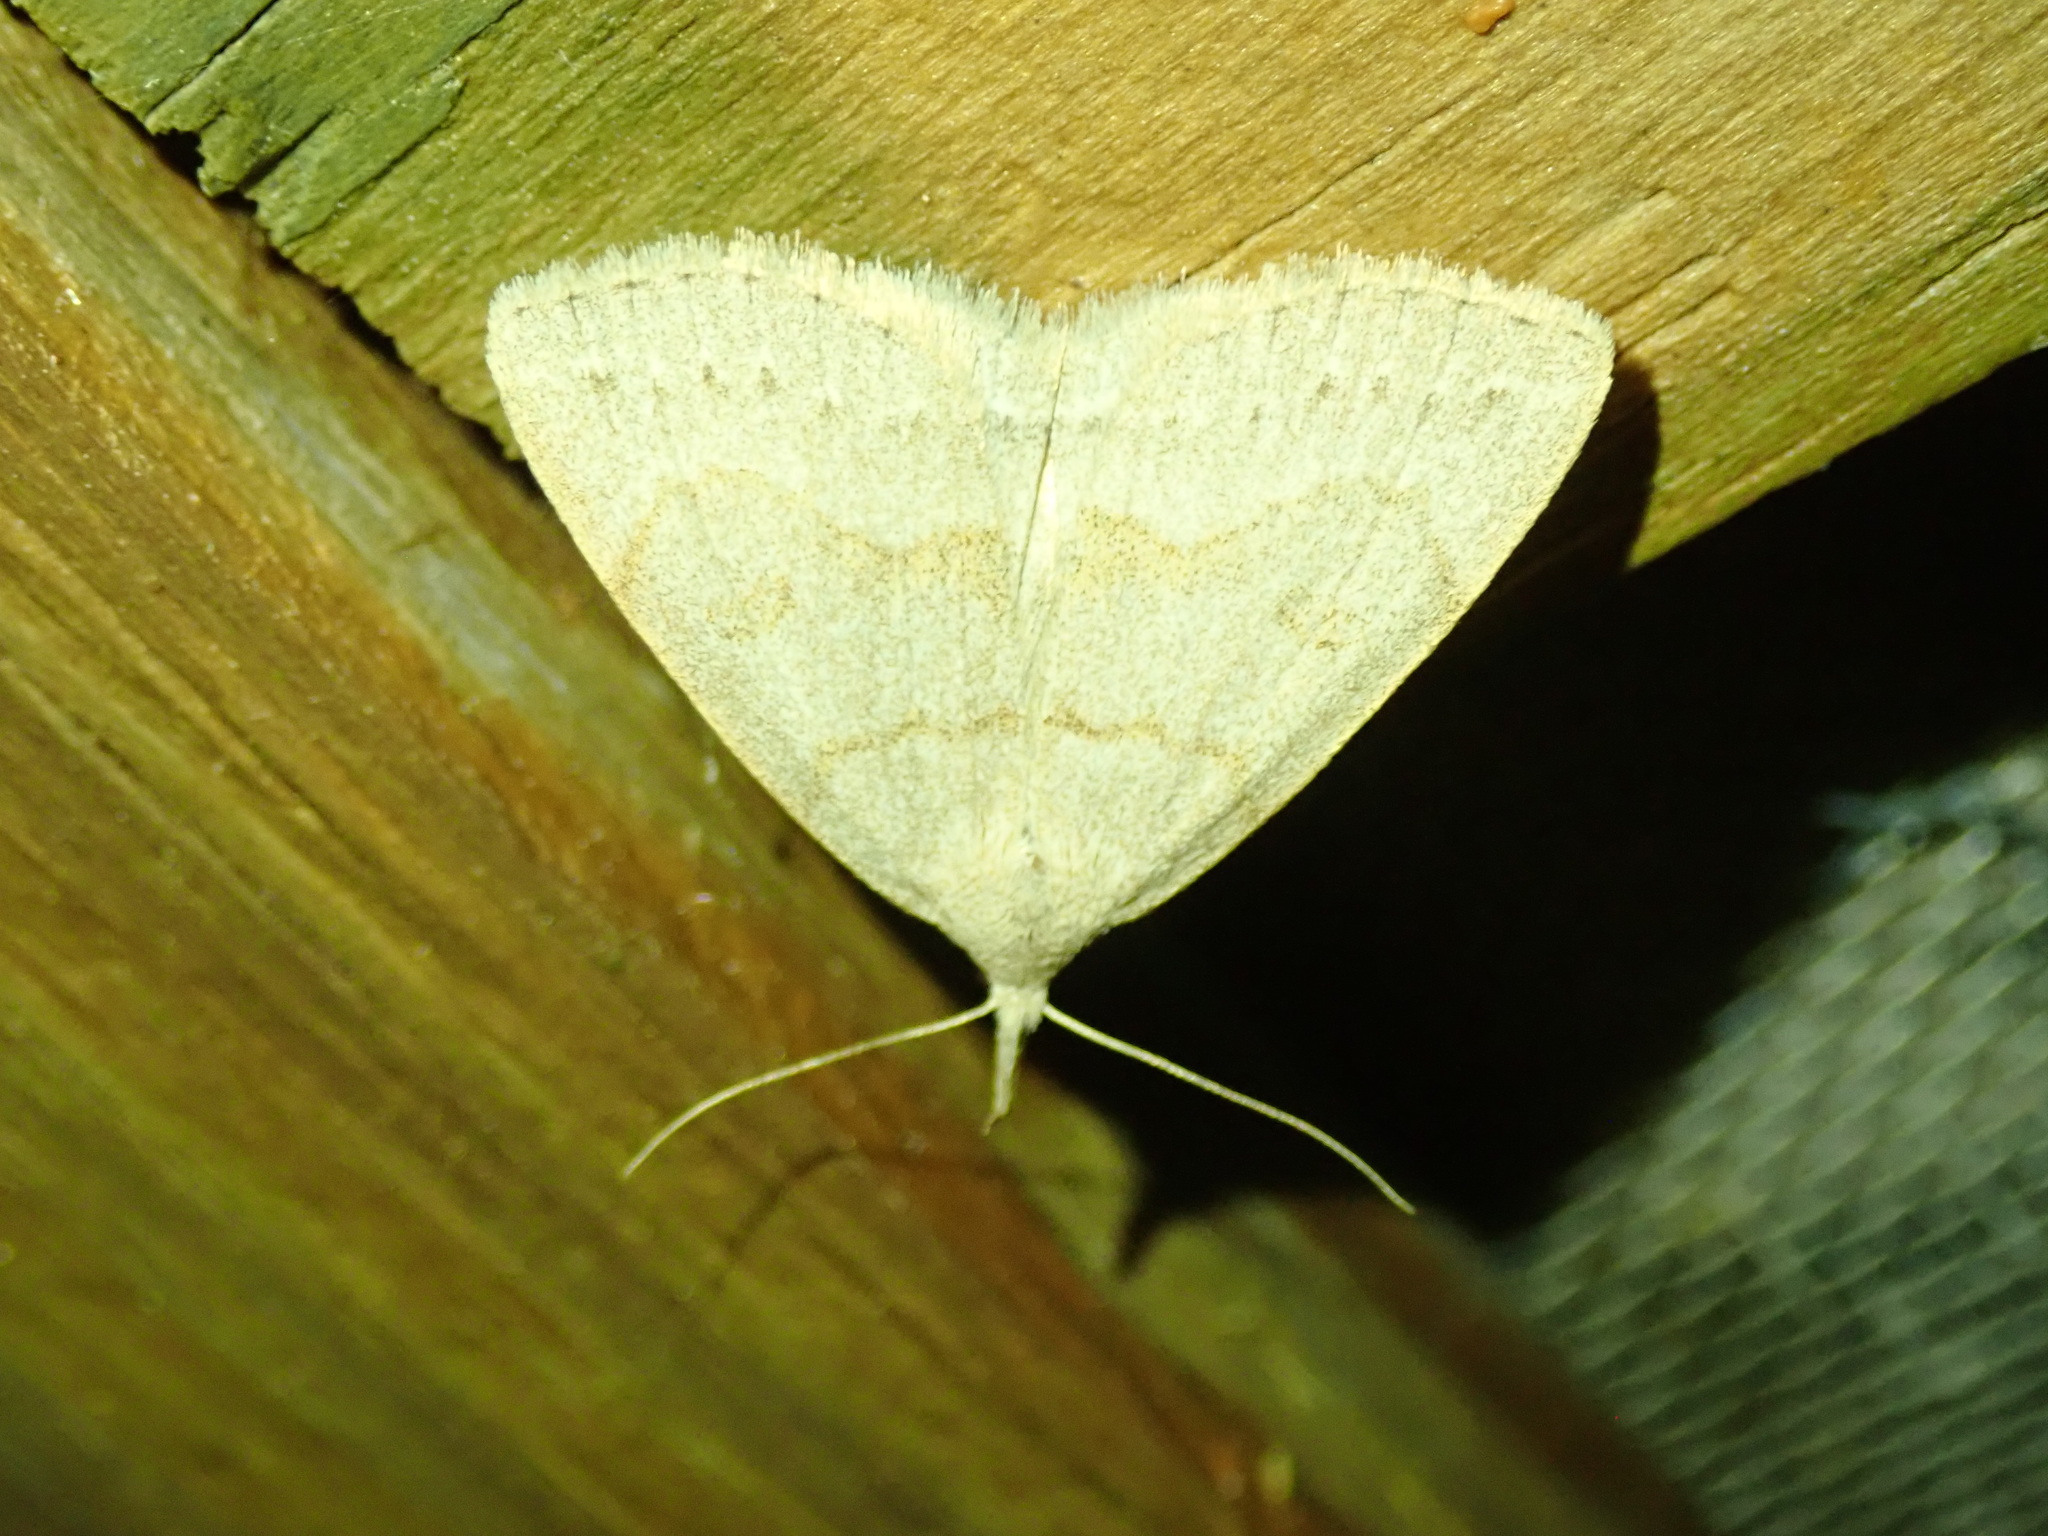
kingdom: Animalia
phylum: Arthropoda
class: Insecta
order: Lepidoptera
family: Erebidae
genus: Macrochilo
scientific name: Macrochilo morbidalis
